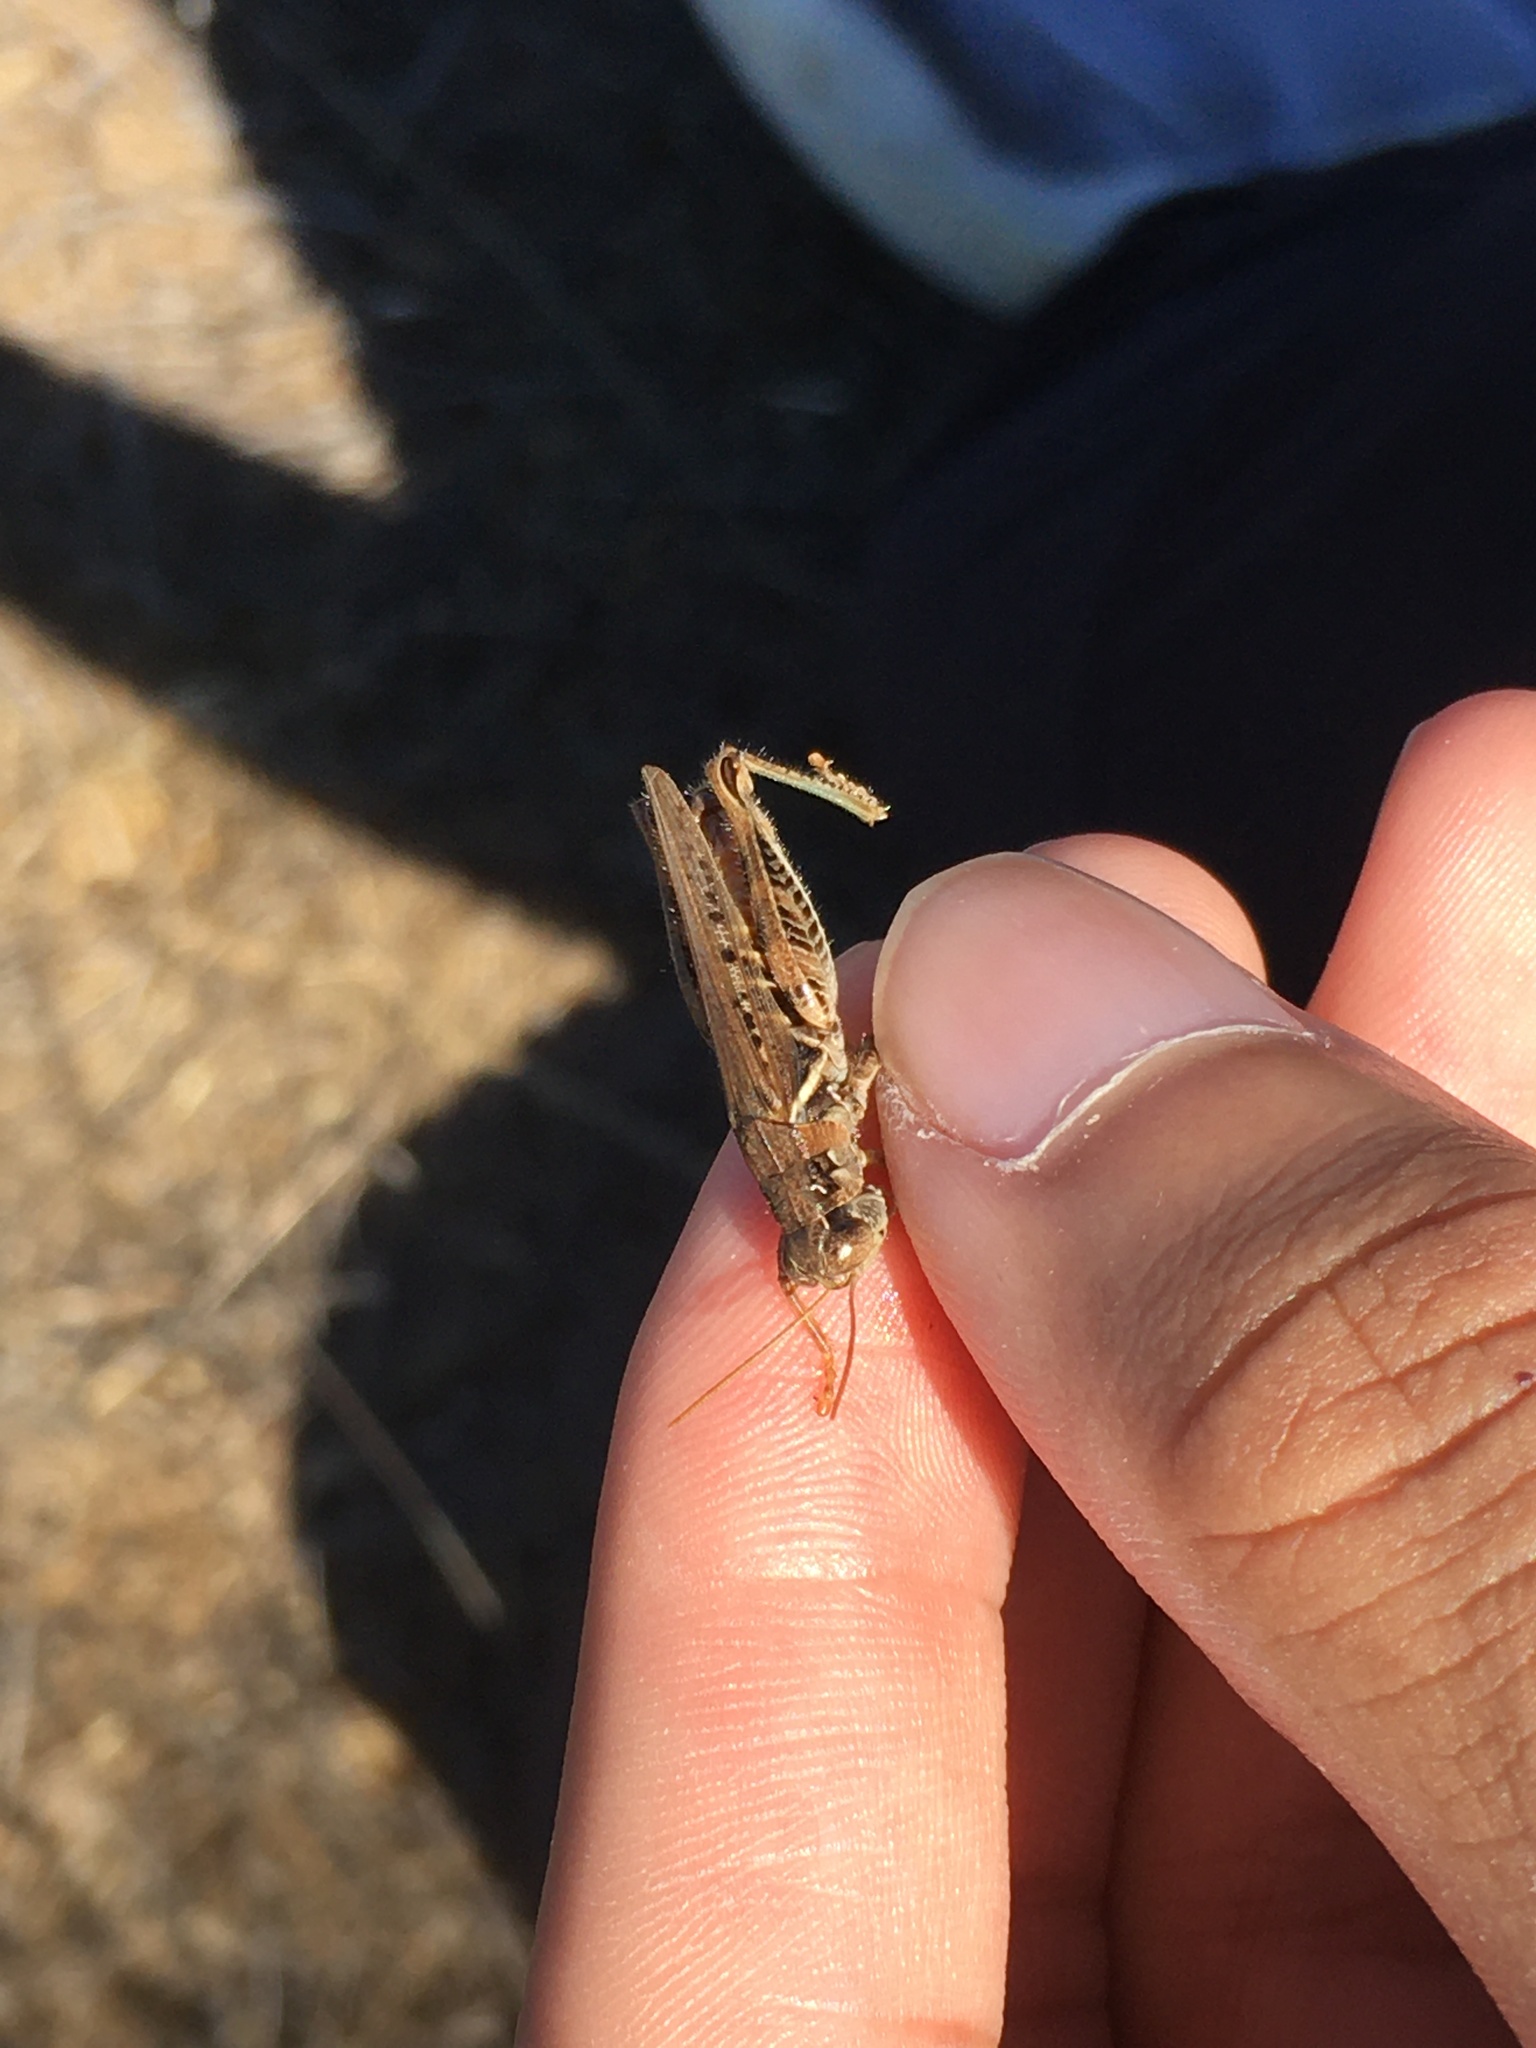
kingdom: Animalia
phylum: Arthropoda
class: Insecta
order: Orthoptera
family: Acrididae
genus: Melanoplus
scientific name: Melanoplus devastator
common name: Devastating grasshopper
